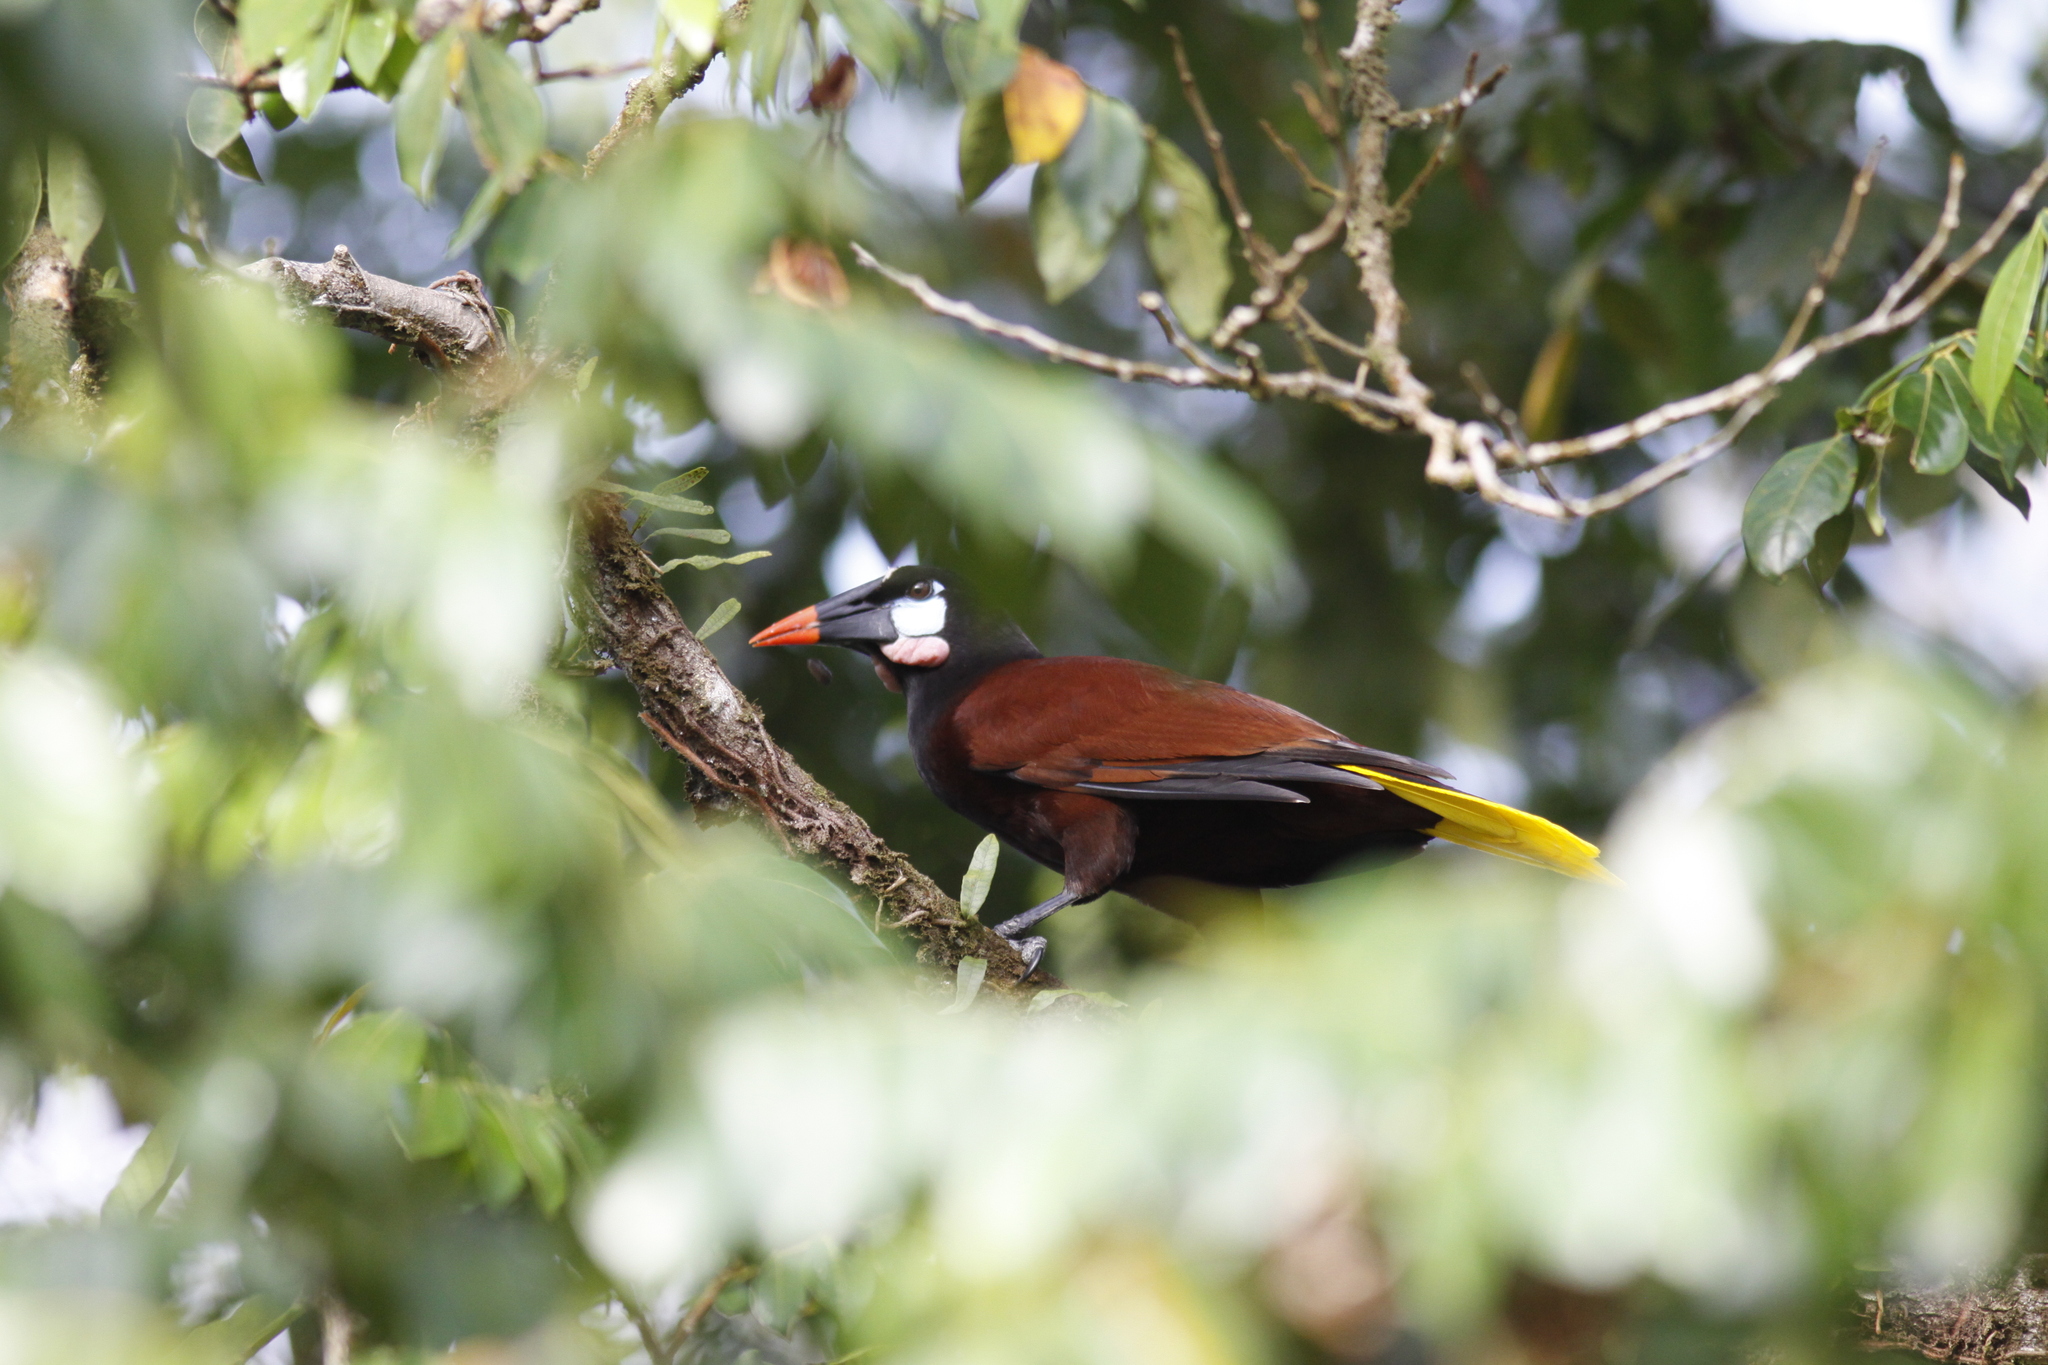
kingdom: Animalia
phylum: Chordata
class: Aves
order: Passeriformes
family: Icteridae
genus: Psarocolius
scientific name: Psarocolius montezuma
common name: Montezuma oropendola
